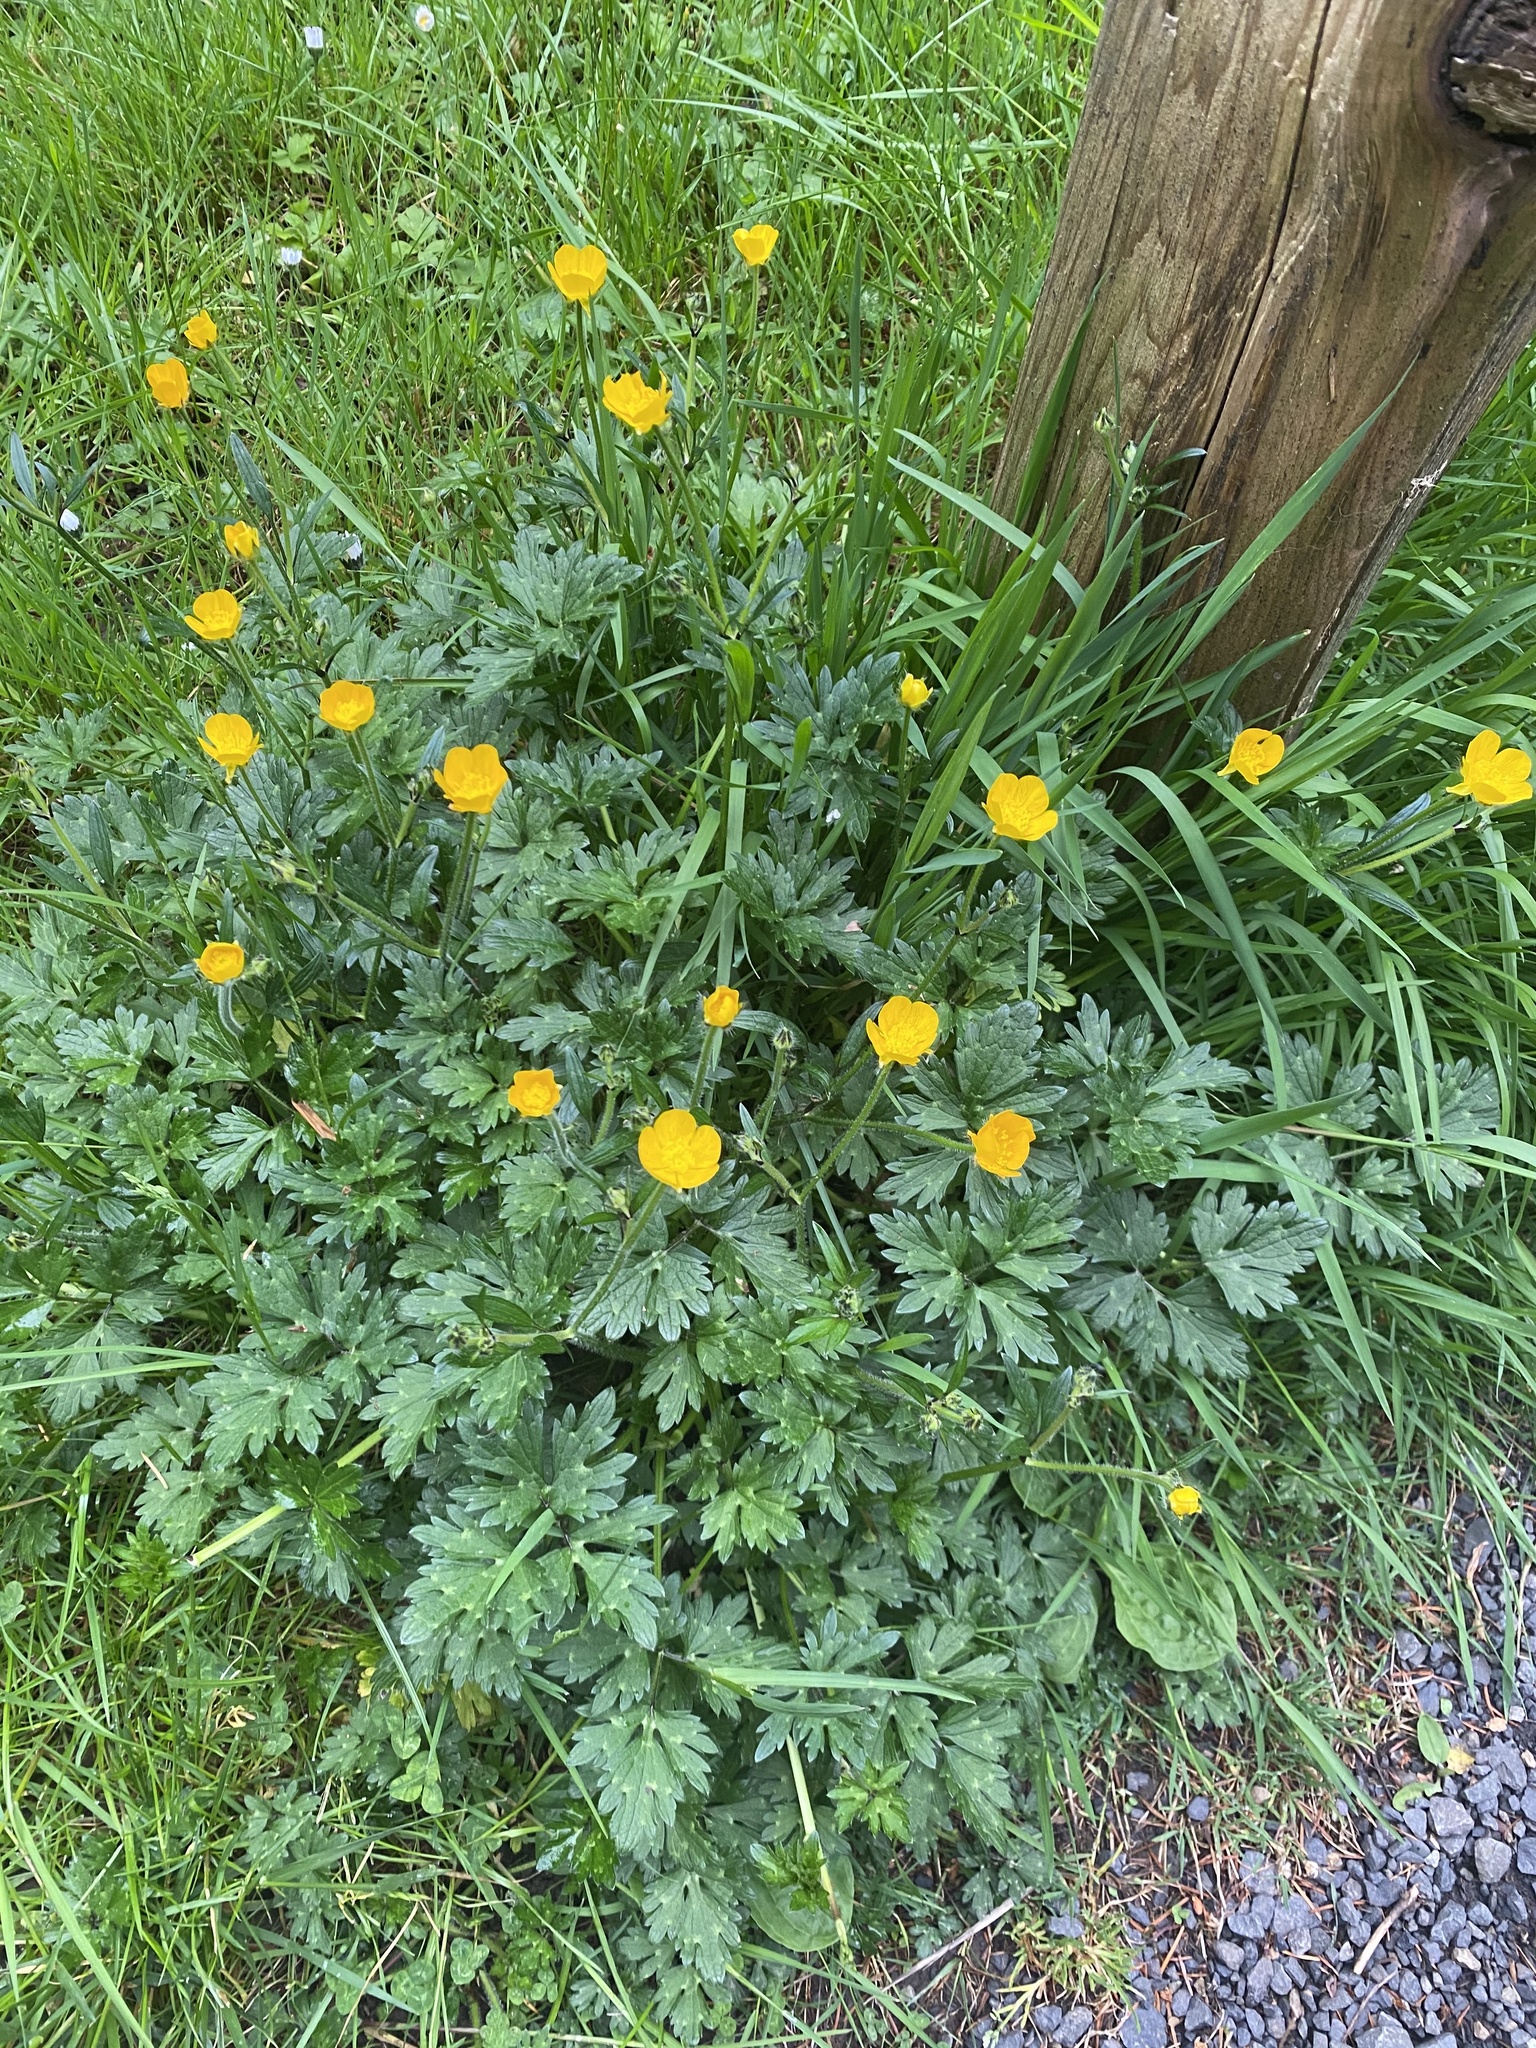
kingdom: Plantae
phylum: Tracheophyta
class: Magnoliopsida
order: Ranunculales
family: Ranunculaceae
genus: Ranunculus
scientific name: Ranunculus repens
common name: Creeping buttercup
